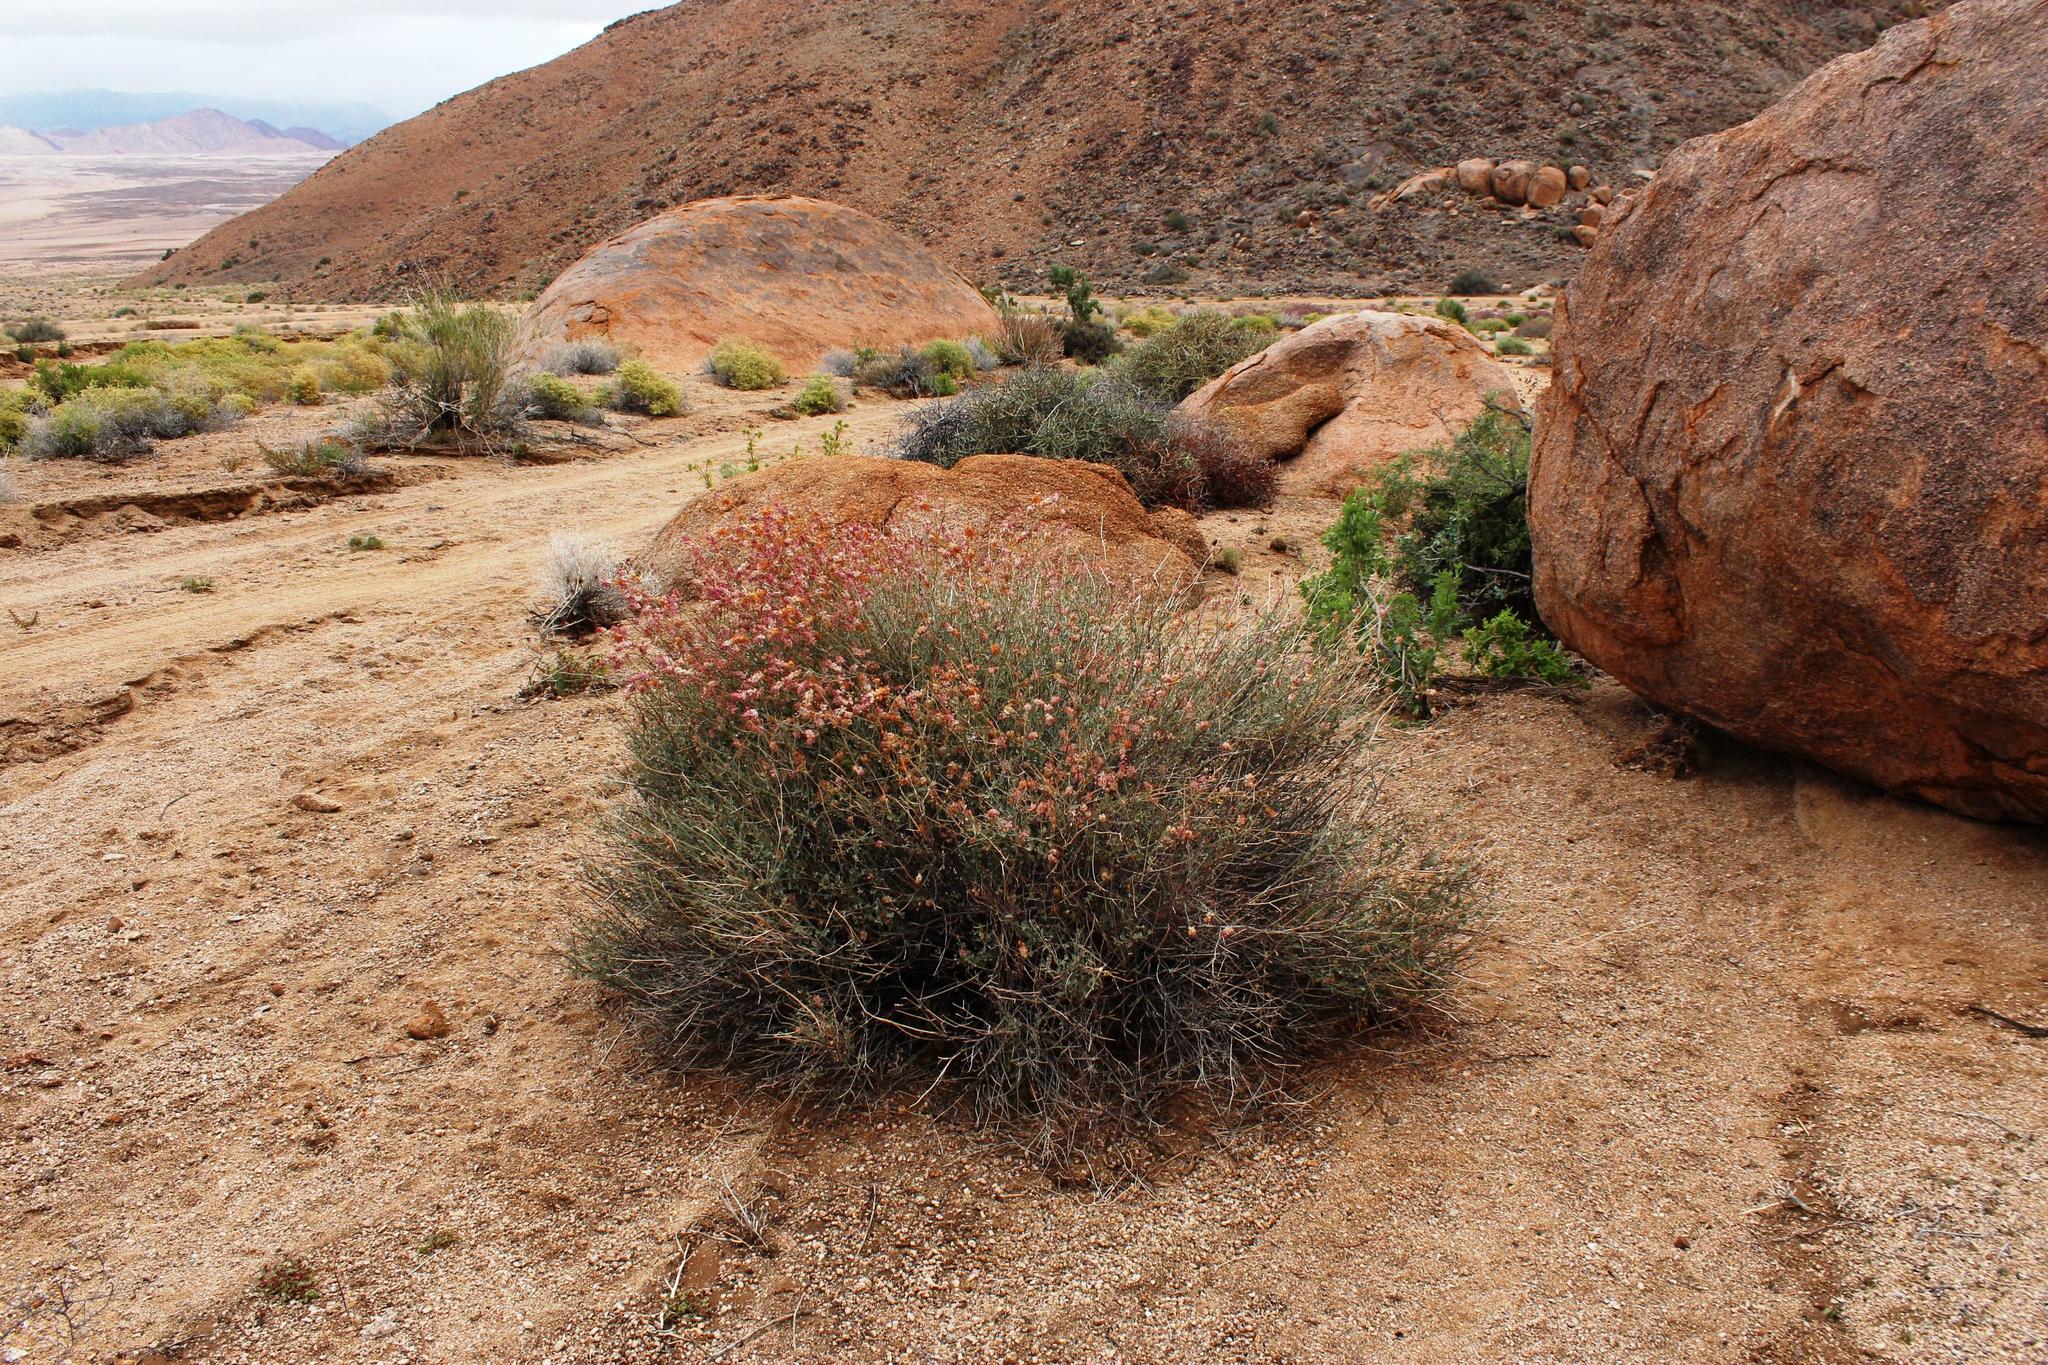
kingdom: Plantae
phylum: Tracheophyta
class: Magnoliopsida
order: Caryophyllales
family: Plumbaginaceae
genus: Dyerophytum
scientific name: Dyerophytum africanum
